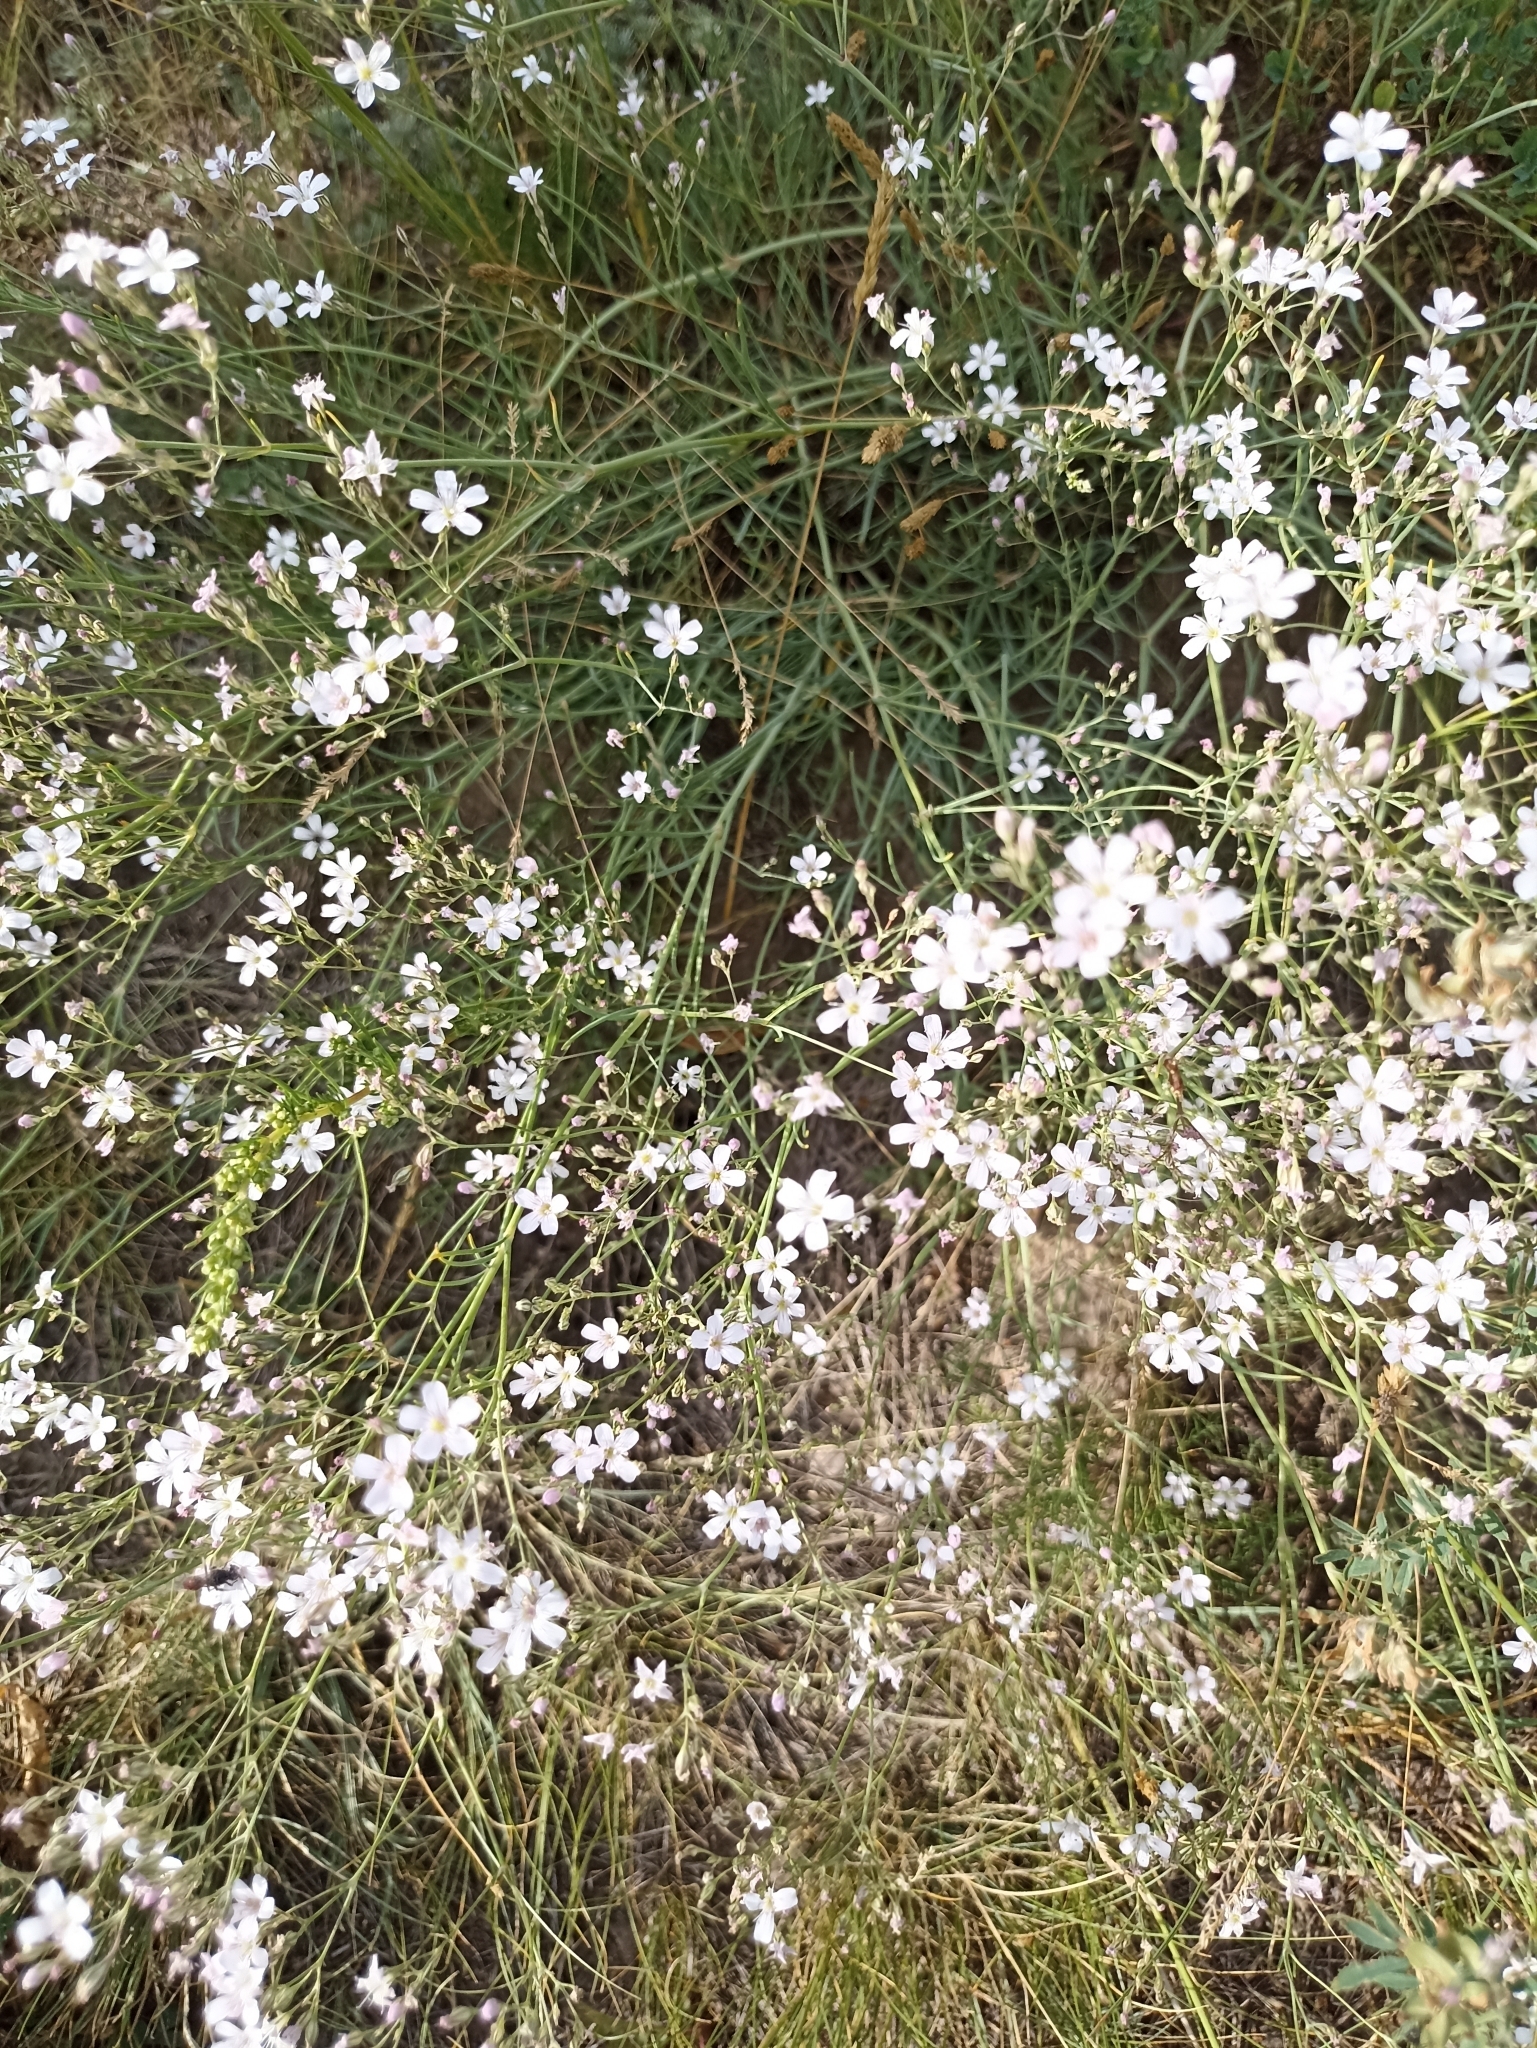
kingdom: Plantae
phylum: Tracheophyta
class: Magnoliopsida
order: Caryophyllales
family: Caryophyllaceae
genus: Gypsophila
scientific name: Gypsophila patrinii
